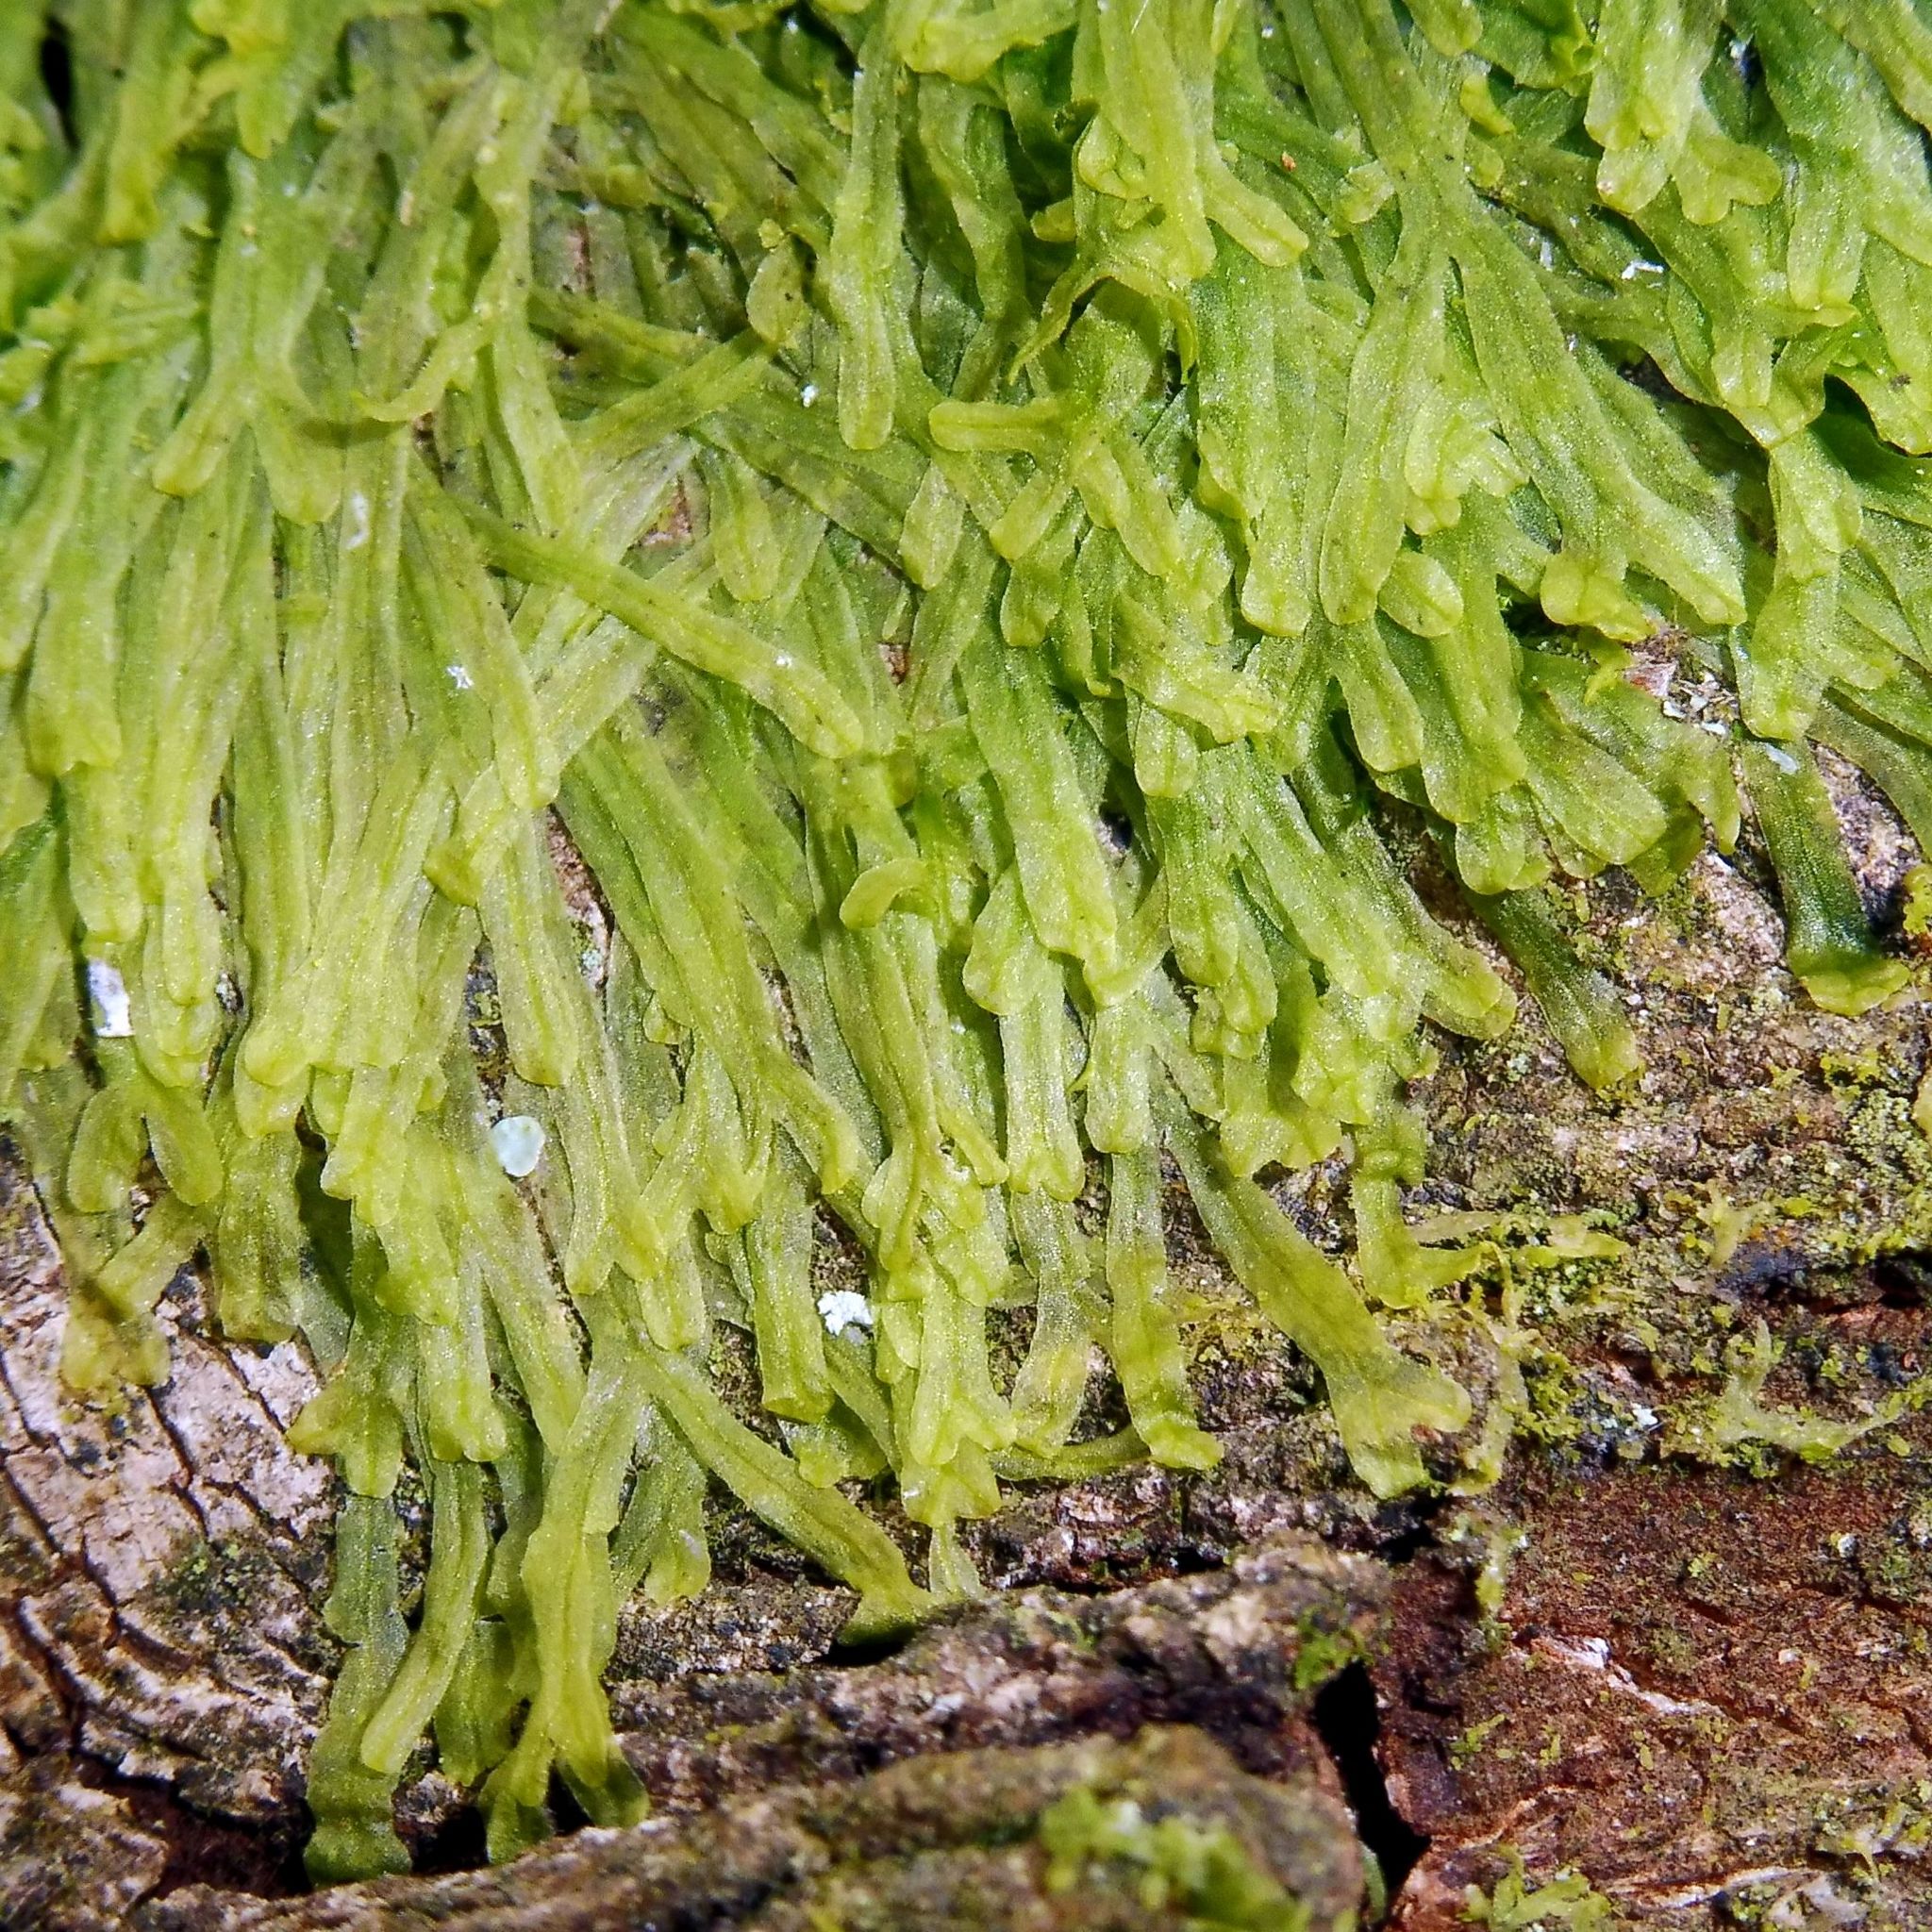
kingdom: Plantae
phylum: Marchantiophyta
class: Jungermanniopsida
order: Metzgeriales
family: Metzgeriaceae
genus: Metzgeria
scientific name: Metzgeria furcata
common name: Forked veilwort
